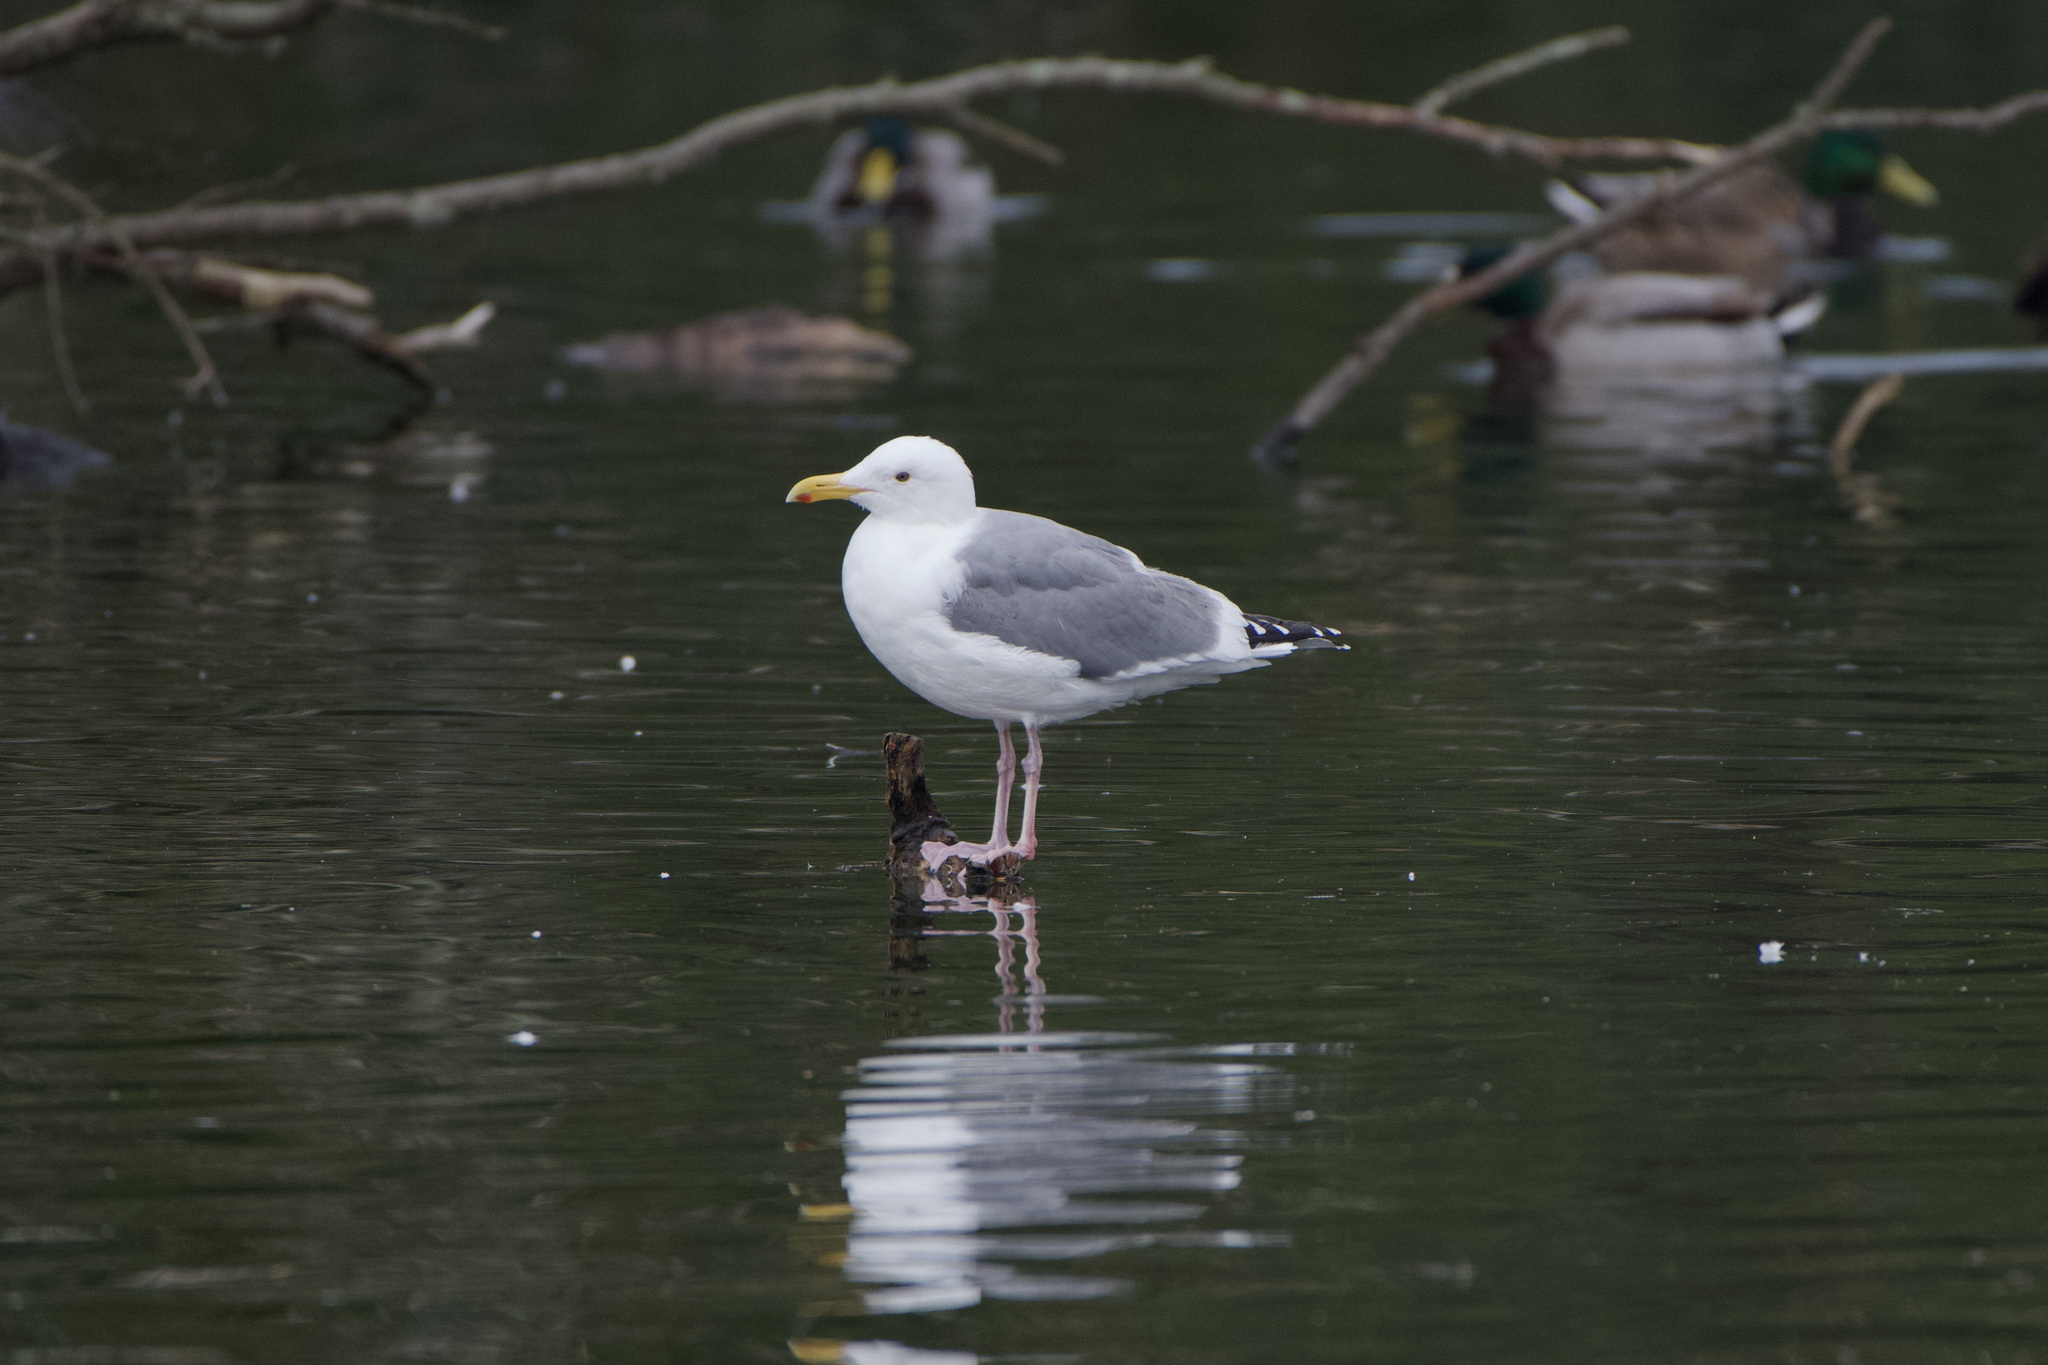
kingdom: Animalia
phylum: Chordata
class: Aves
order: Charadriiformes
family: Laridae
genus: Larus
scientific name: Larus occidentalis
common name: Western gull
